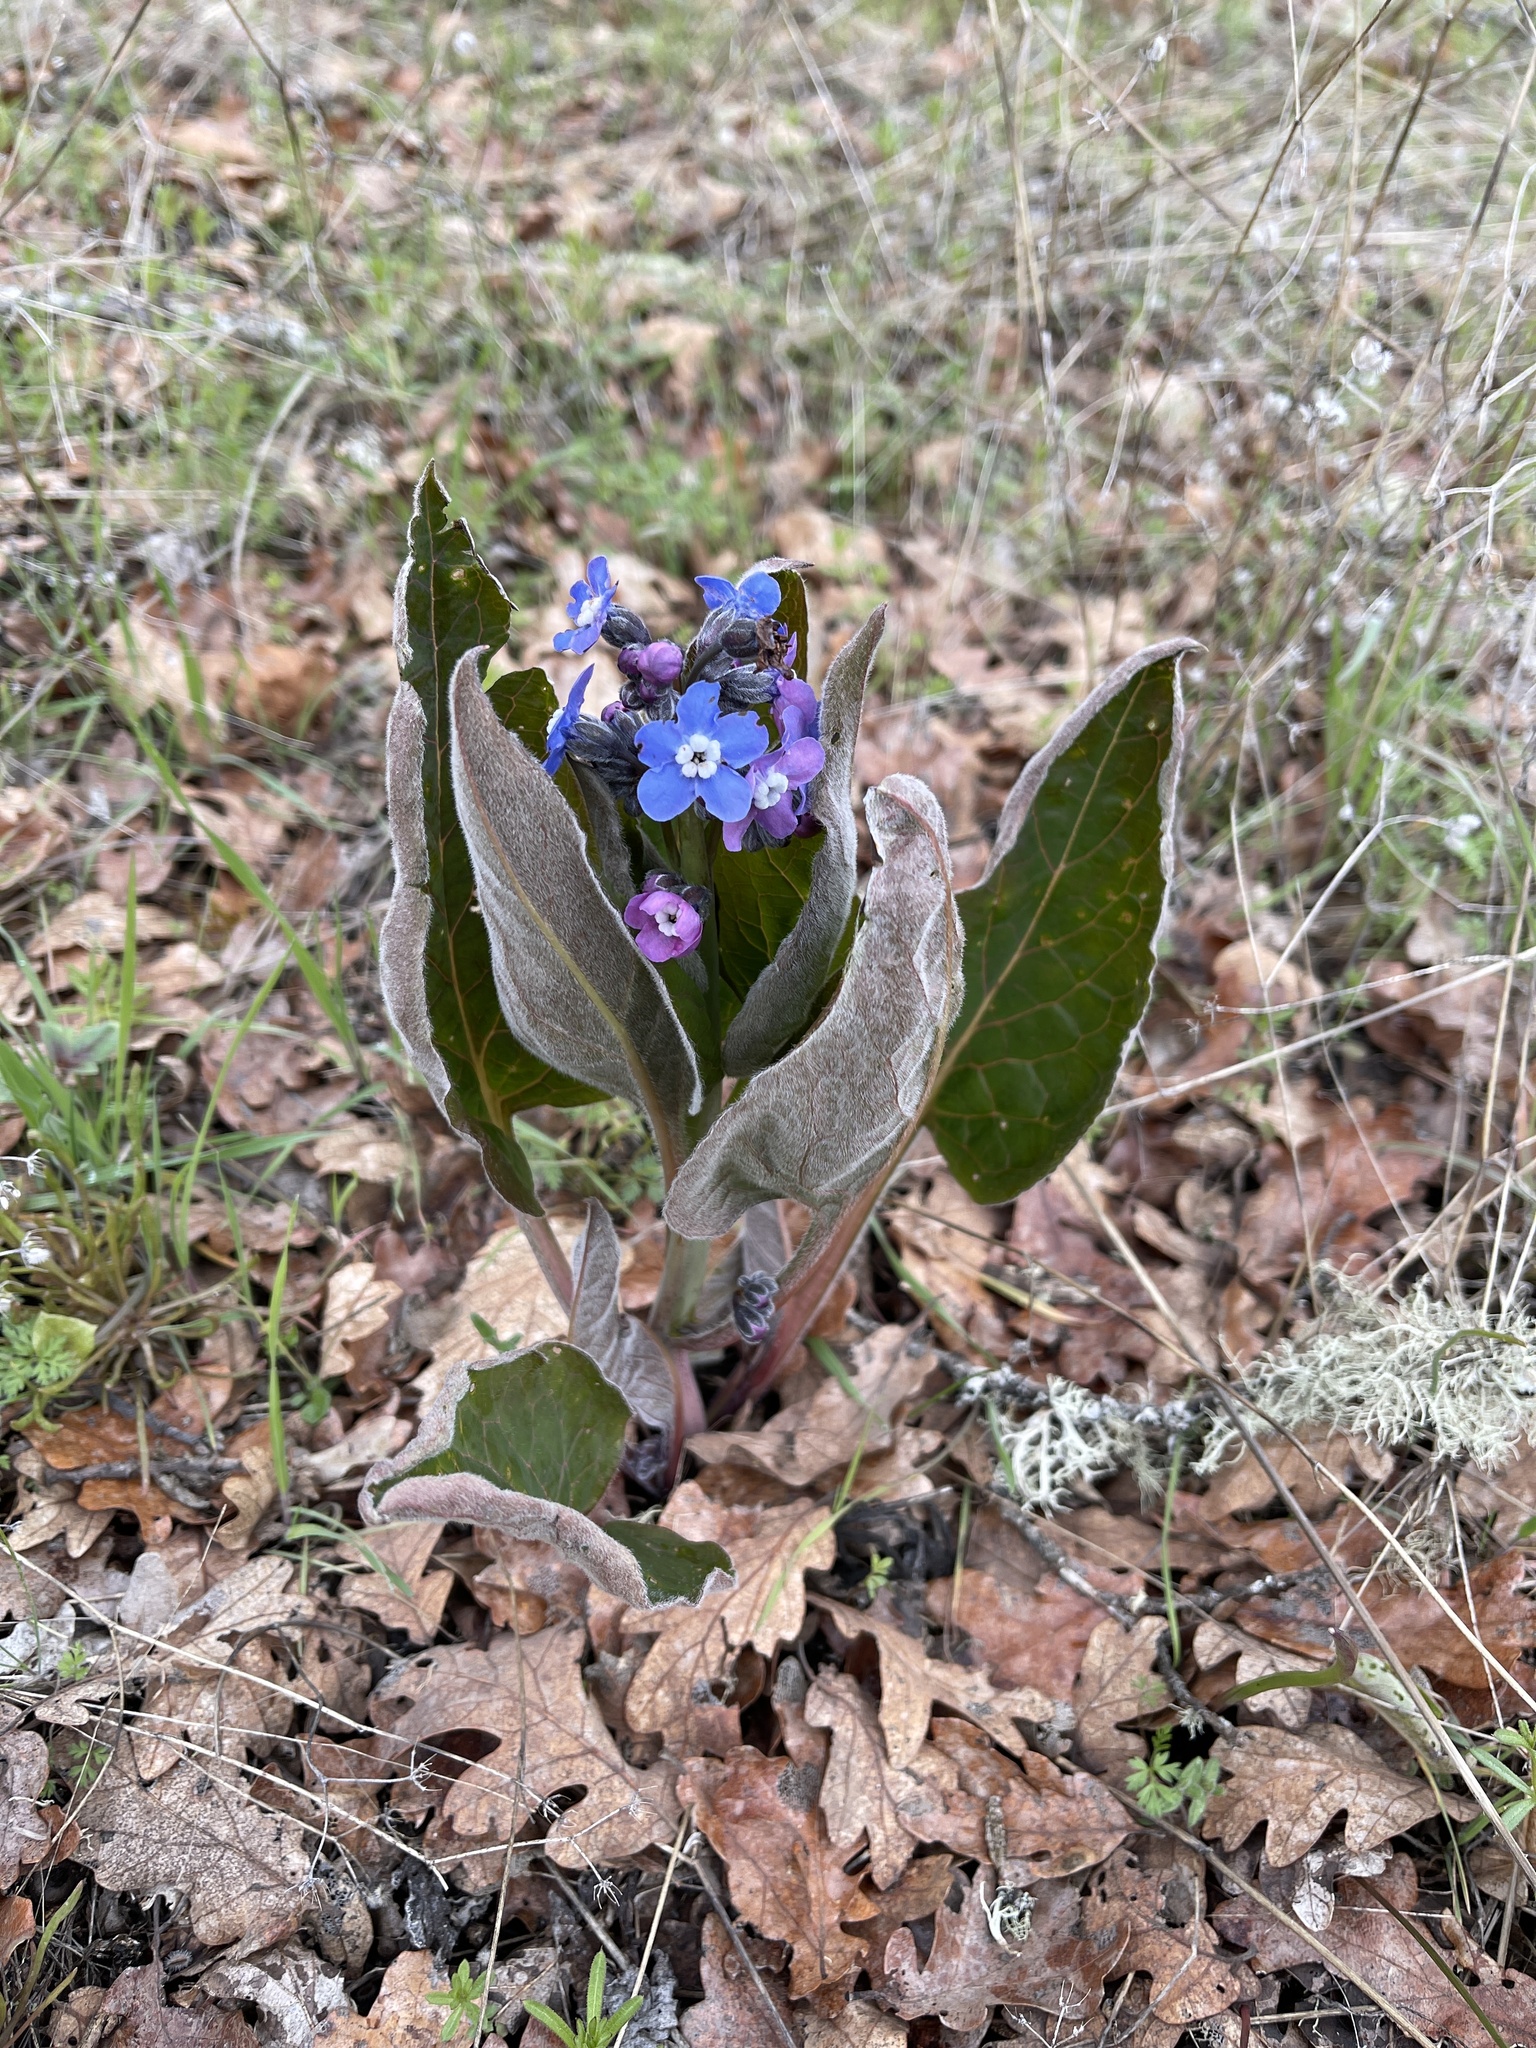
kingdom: Plantae
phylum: Tracheophyta
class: Magnoliopsida
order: Boraginales
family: Boraginaceae
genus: Adelinia
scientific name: Adelinia grande
